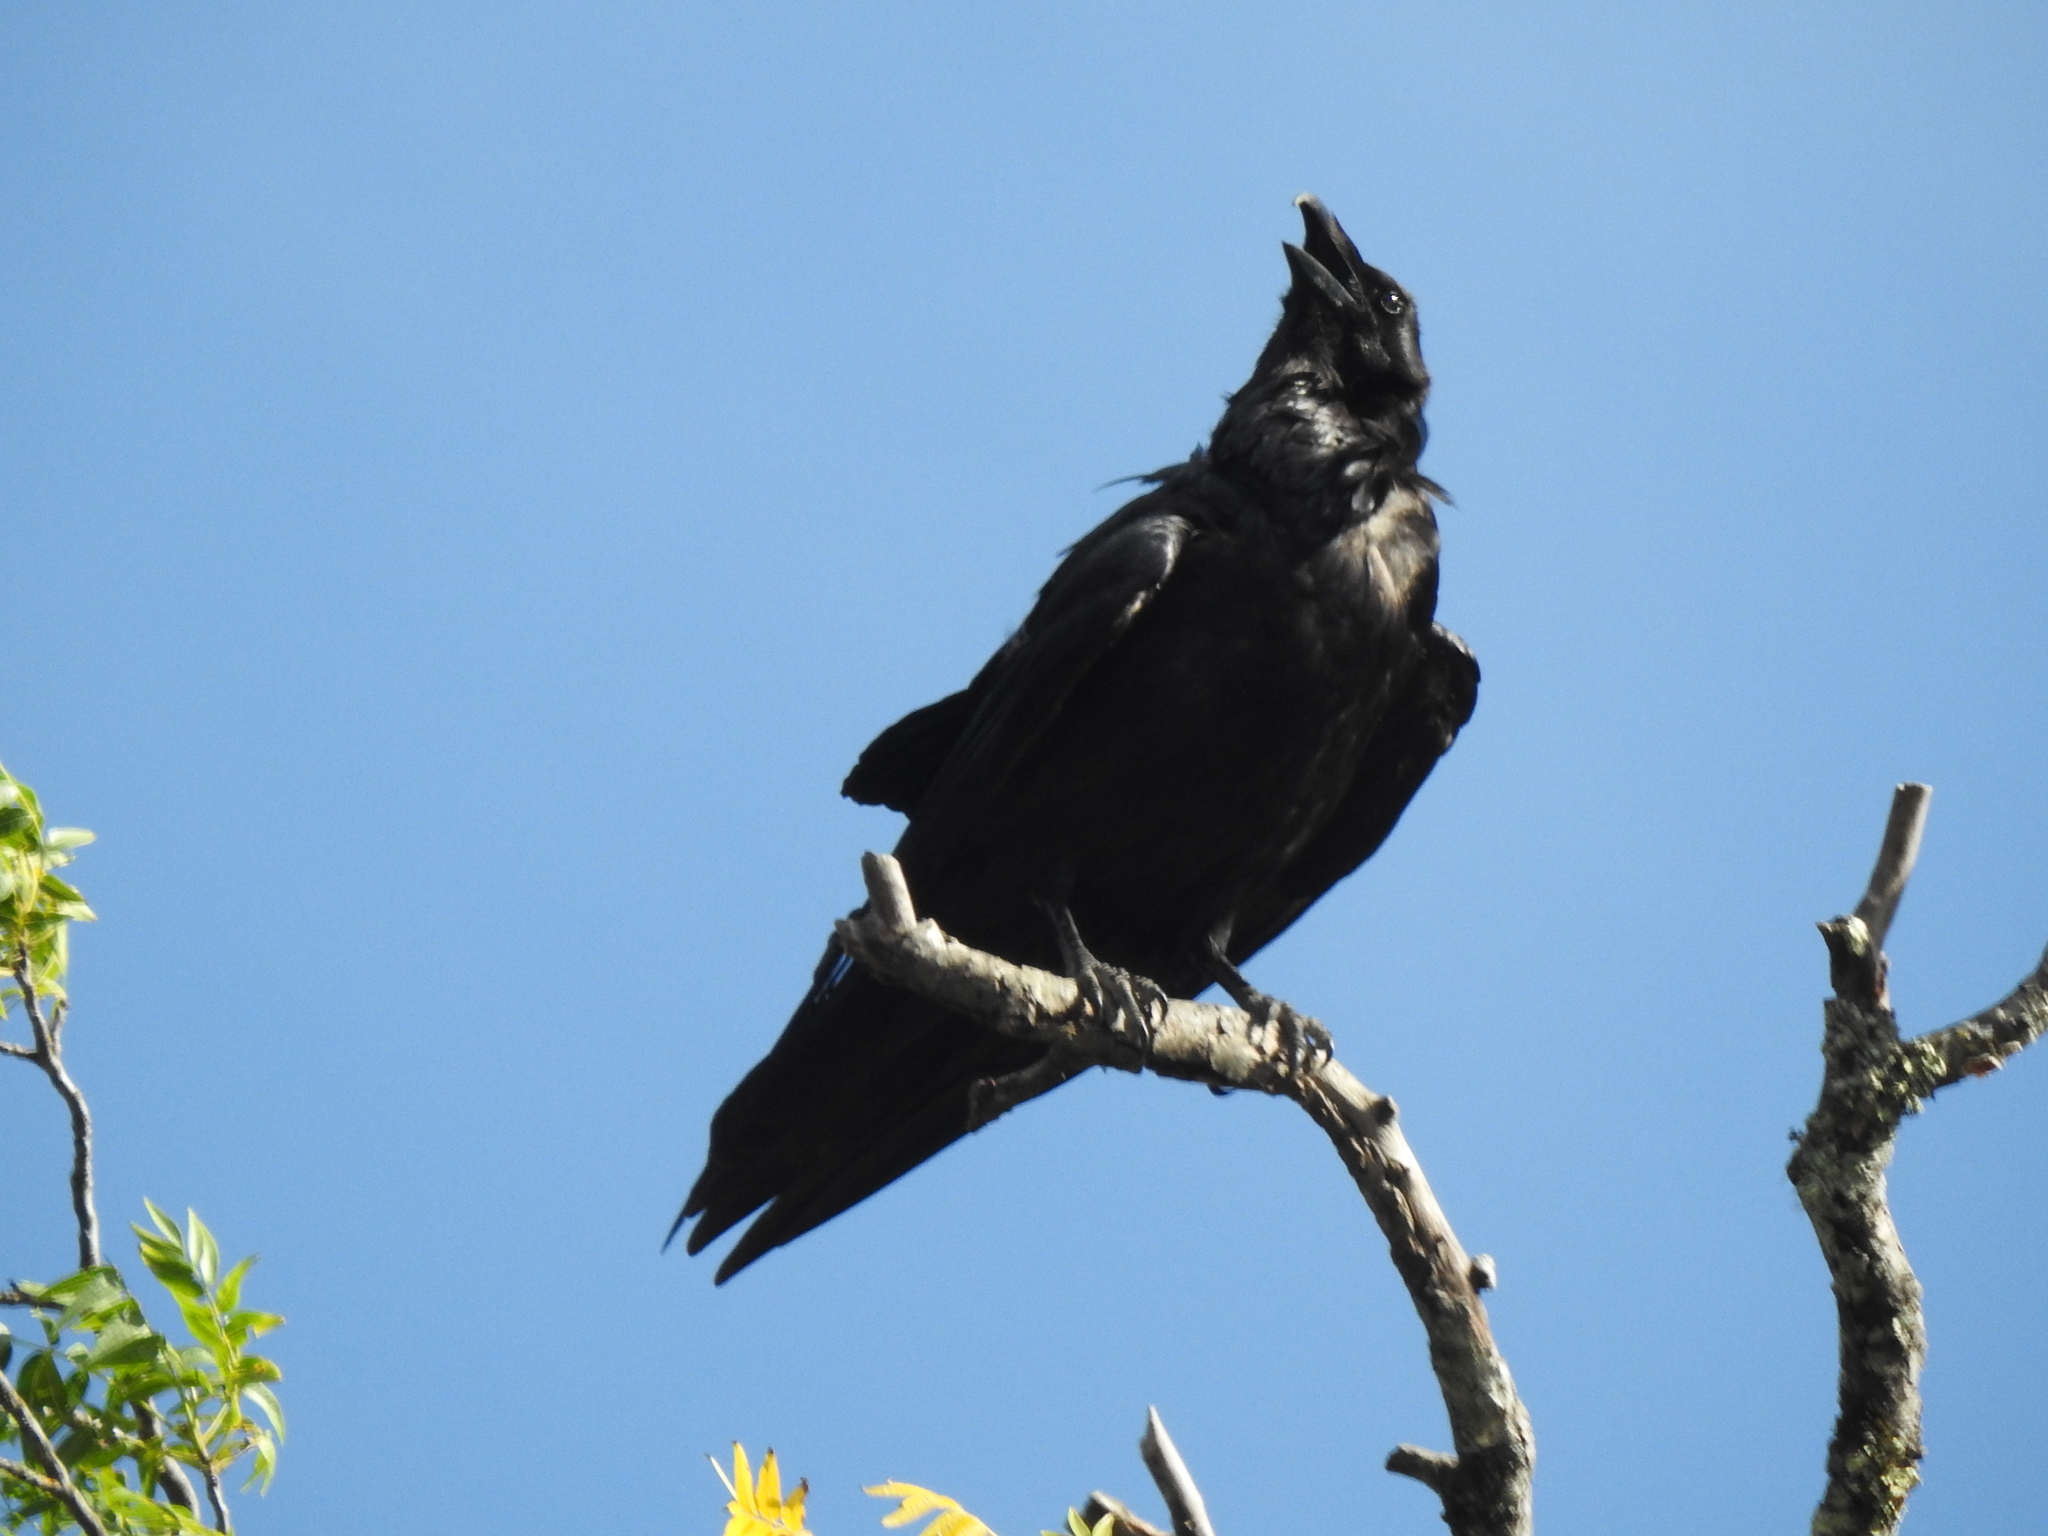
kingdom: Animalia
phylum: Chordata
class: Aves
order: Passeriformes
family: Corvidae
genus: Corvus
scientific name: Corvus corax
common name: Common raven
